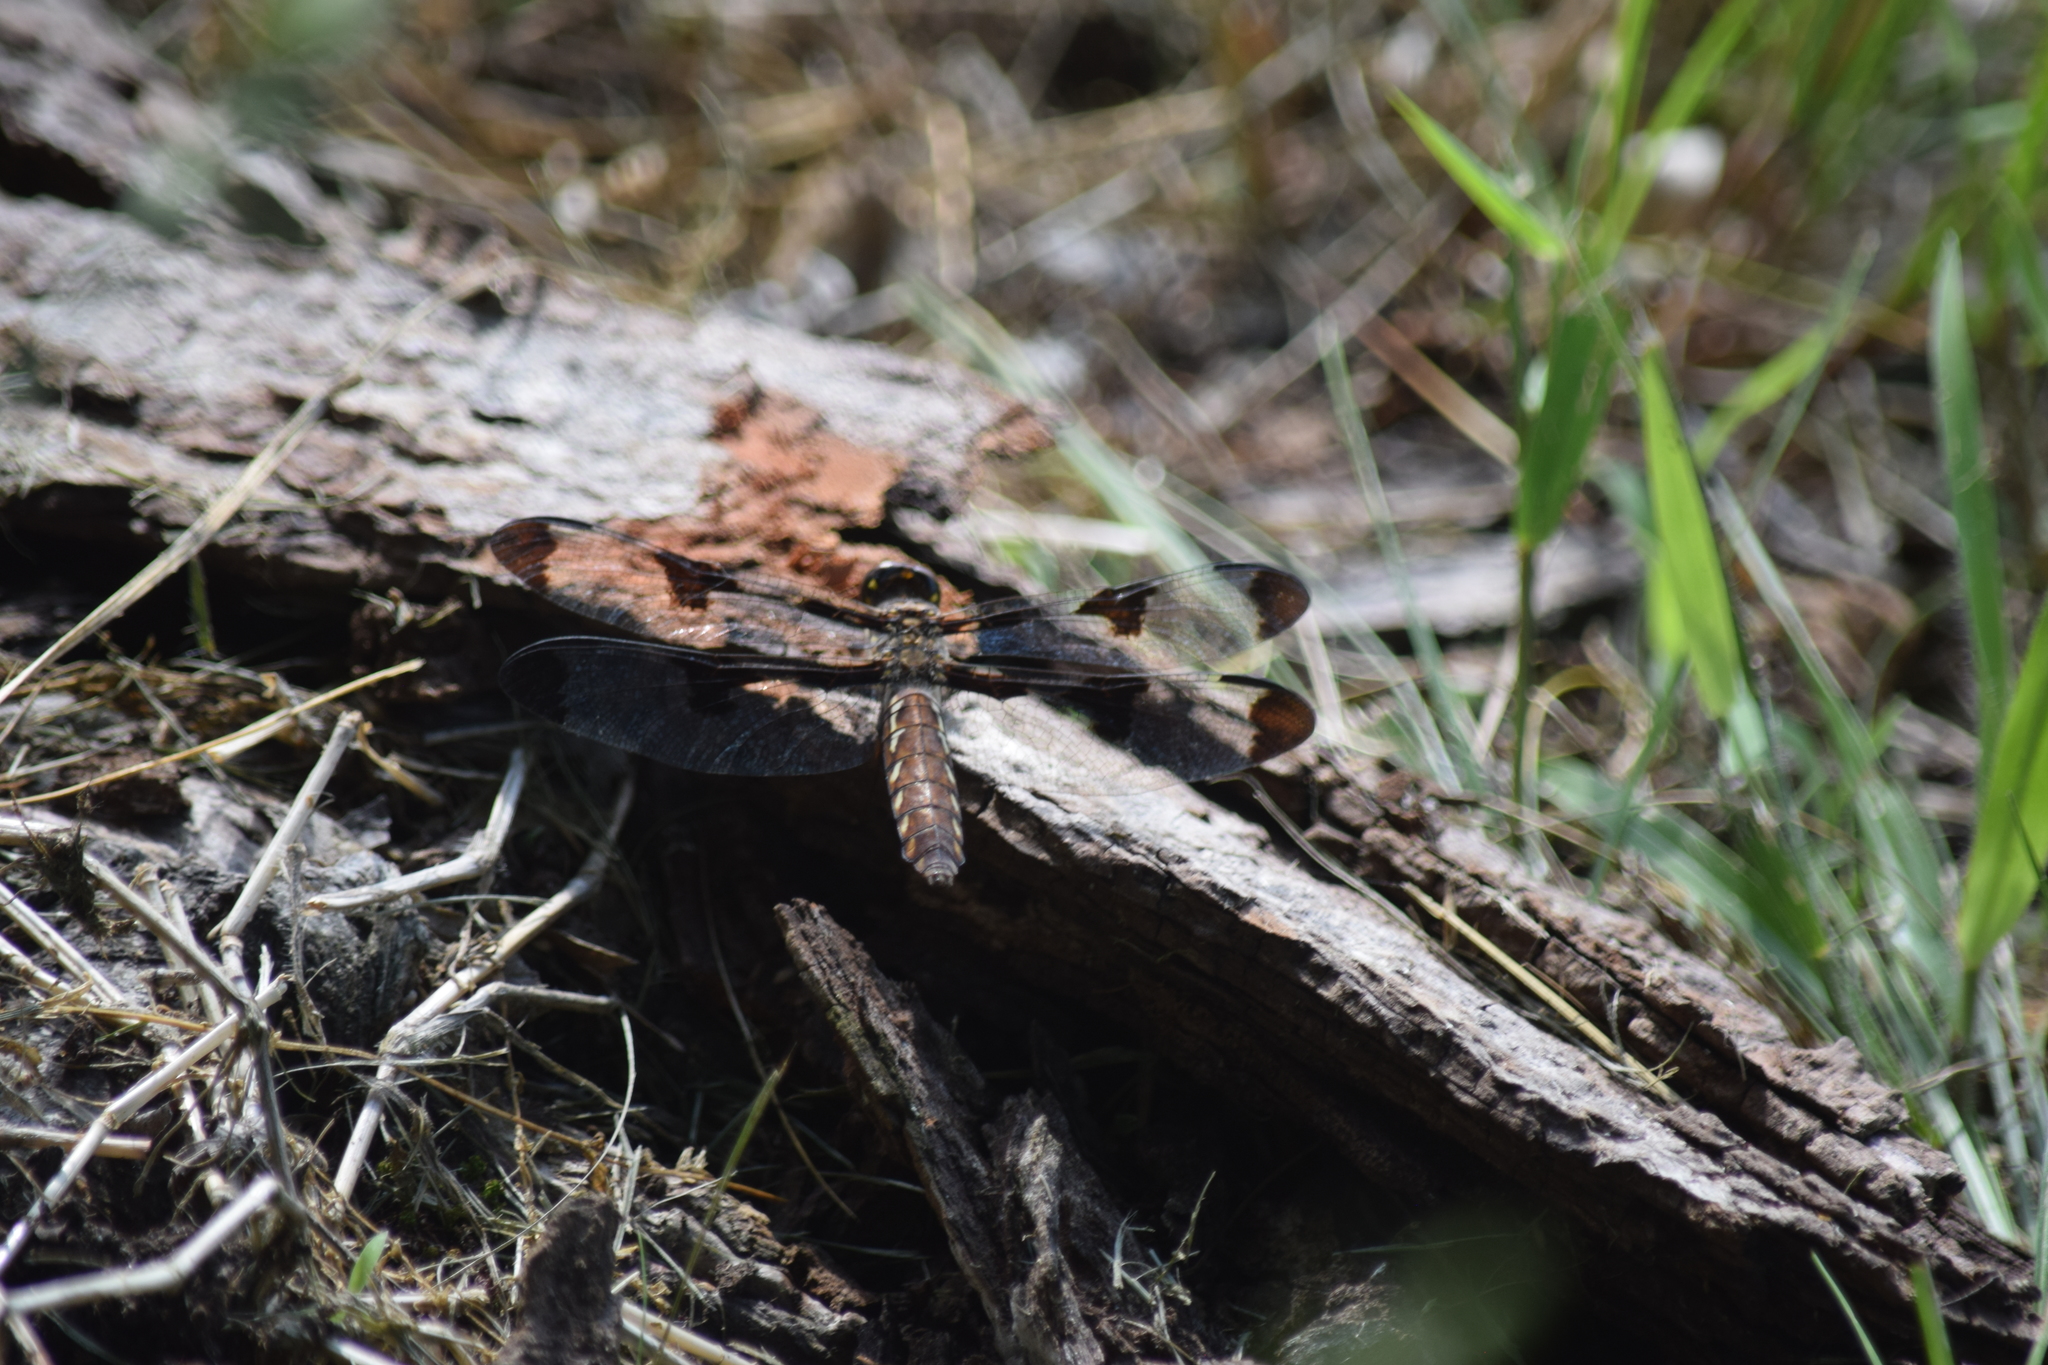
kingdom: Animalia
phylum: Arthropoda
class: Insecta
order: Odonata
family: Libellulidae
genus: Plathemis
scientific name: Plathemis lydia
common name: Common whitetail
